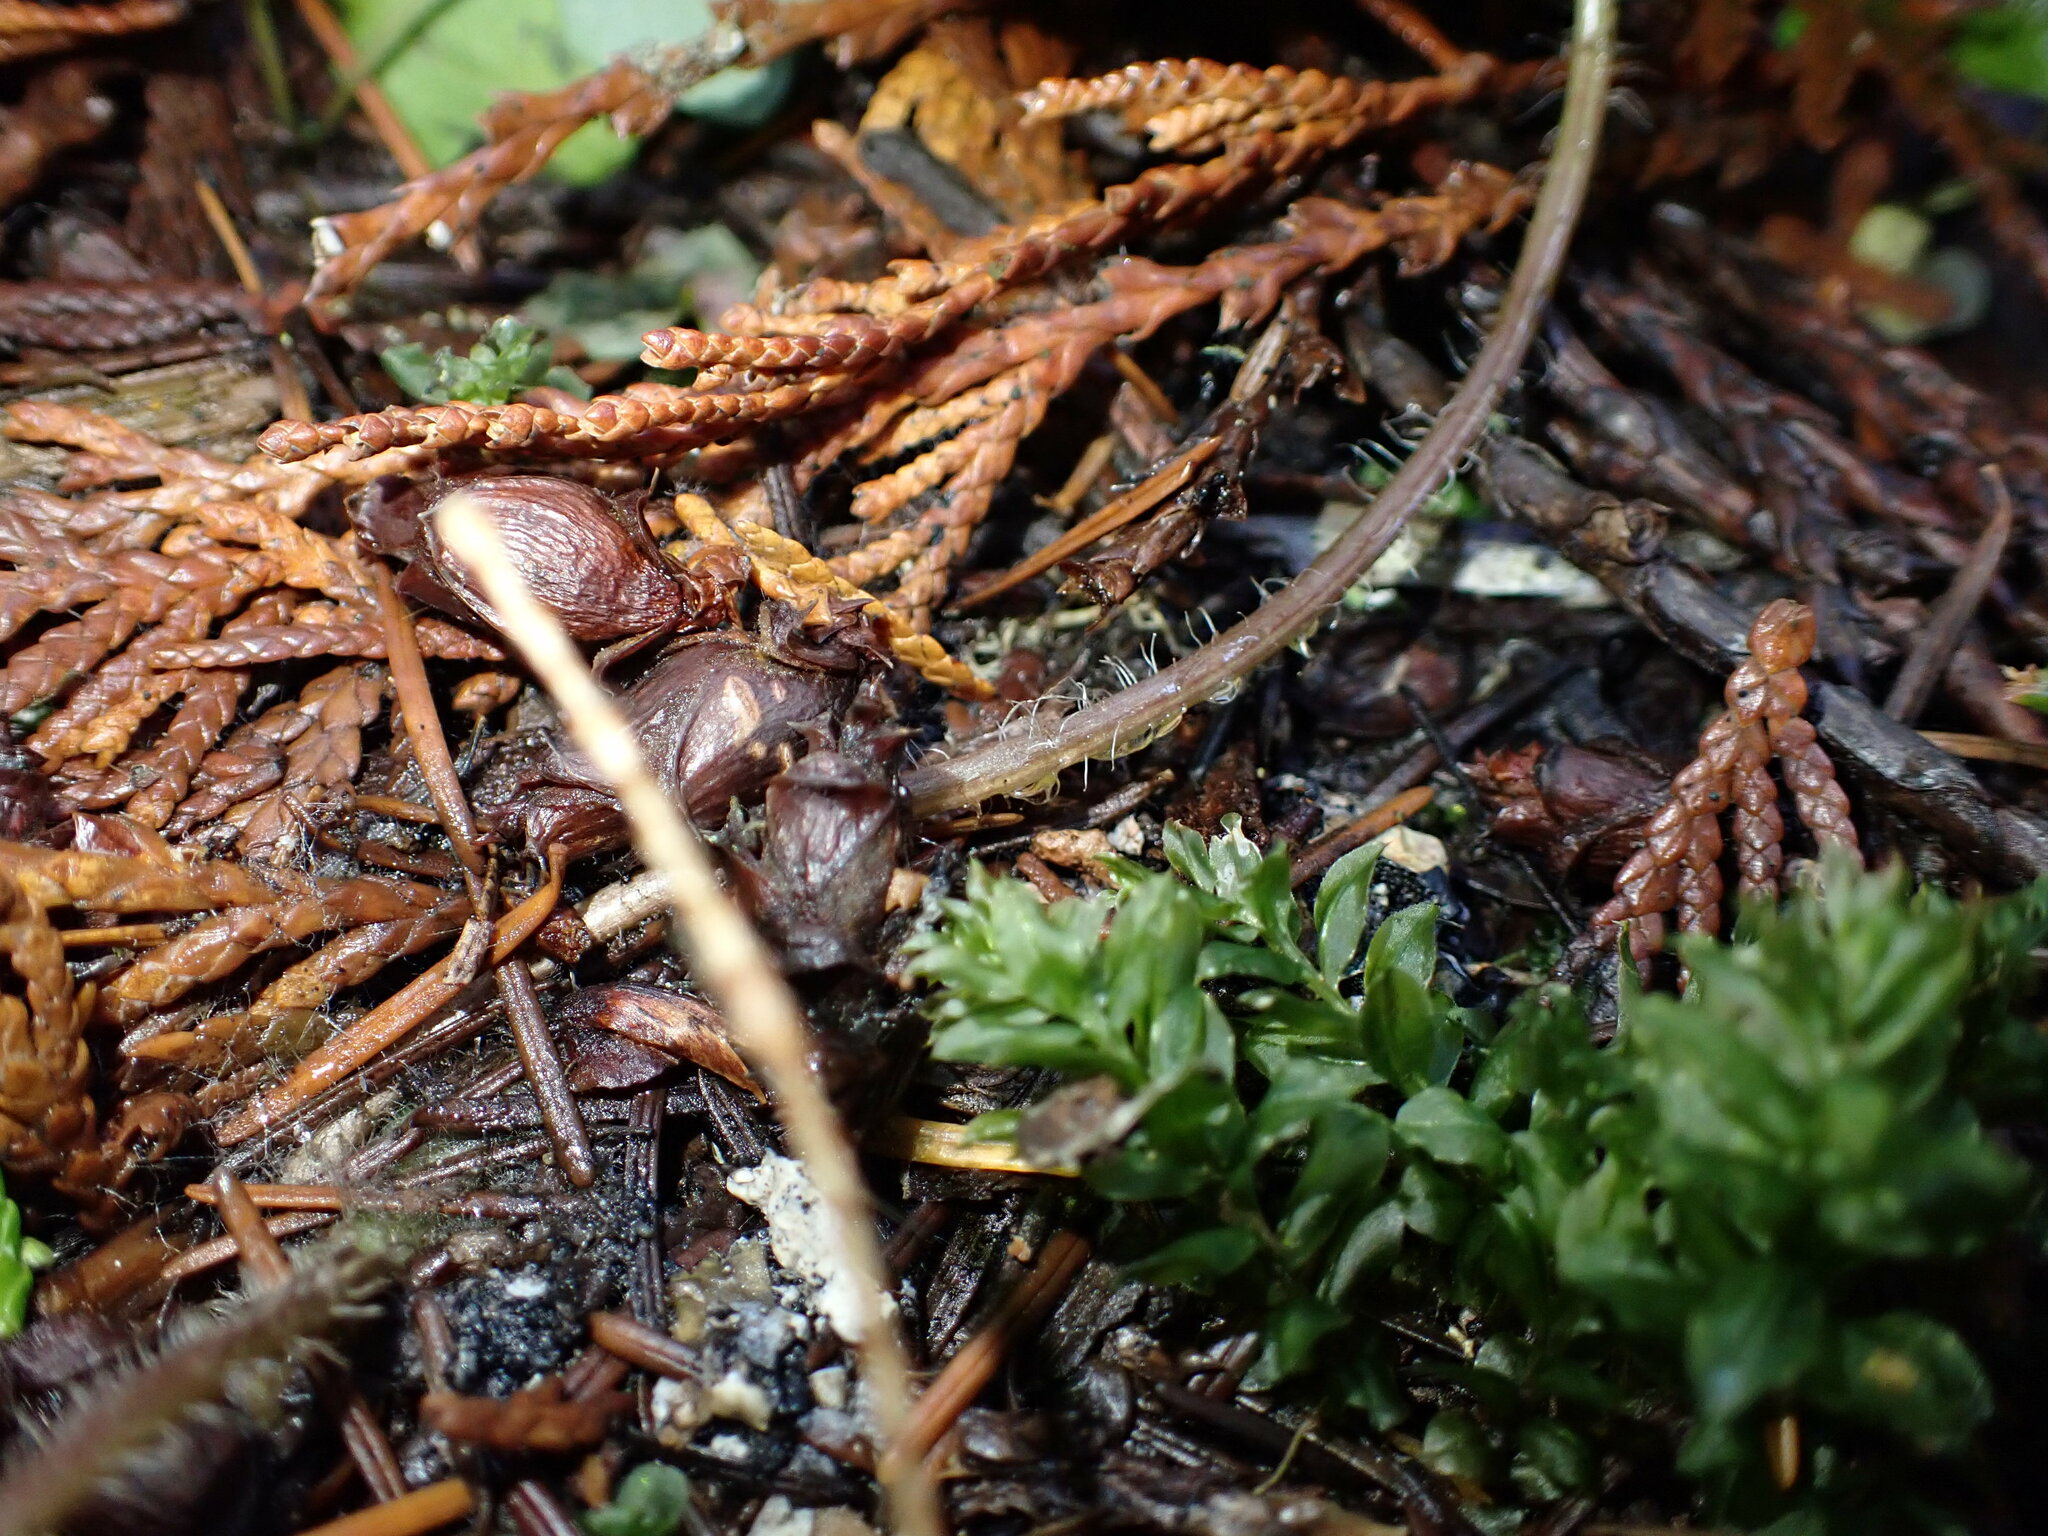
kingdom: Plantae
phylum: Tracheophyta
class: Magnoliopsida
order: Piperales
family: Aristolochiaceae
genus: Asarum
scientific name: Asarum caudatum
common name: Wild ginger
